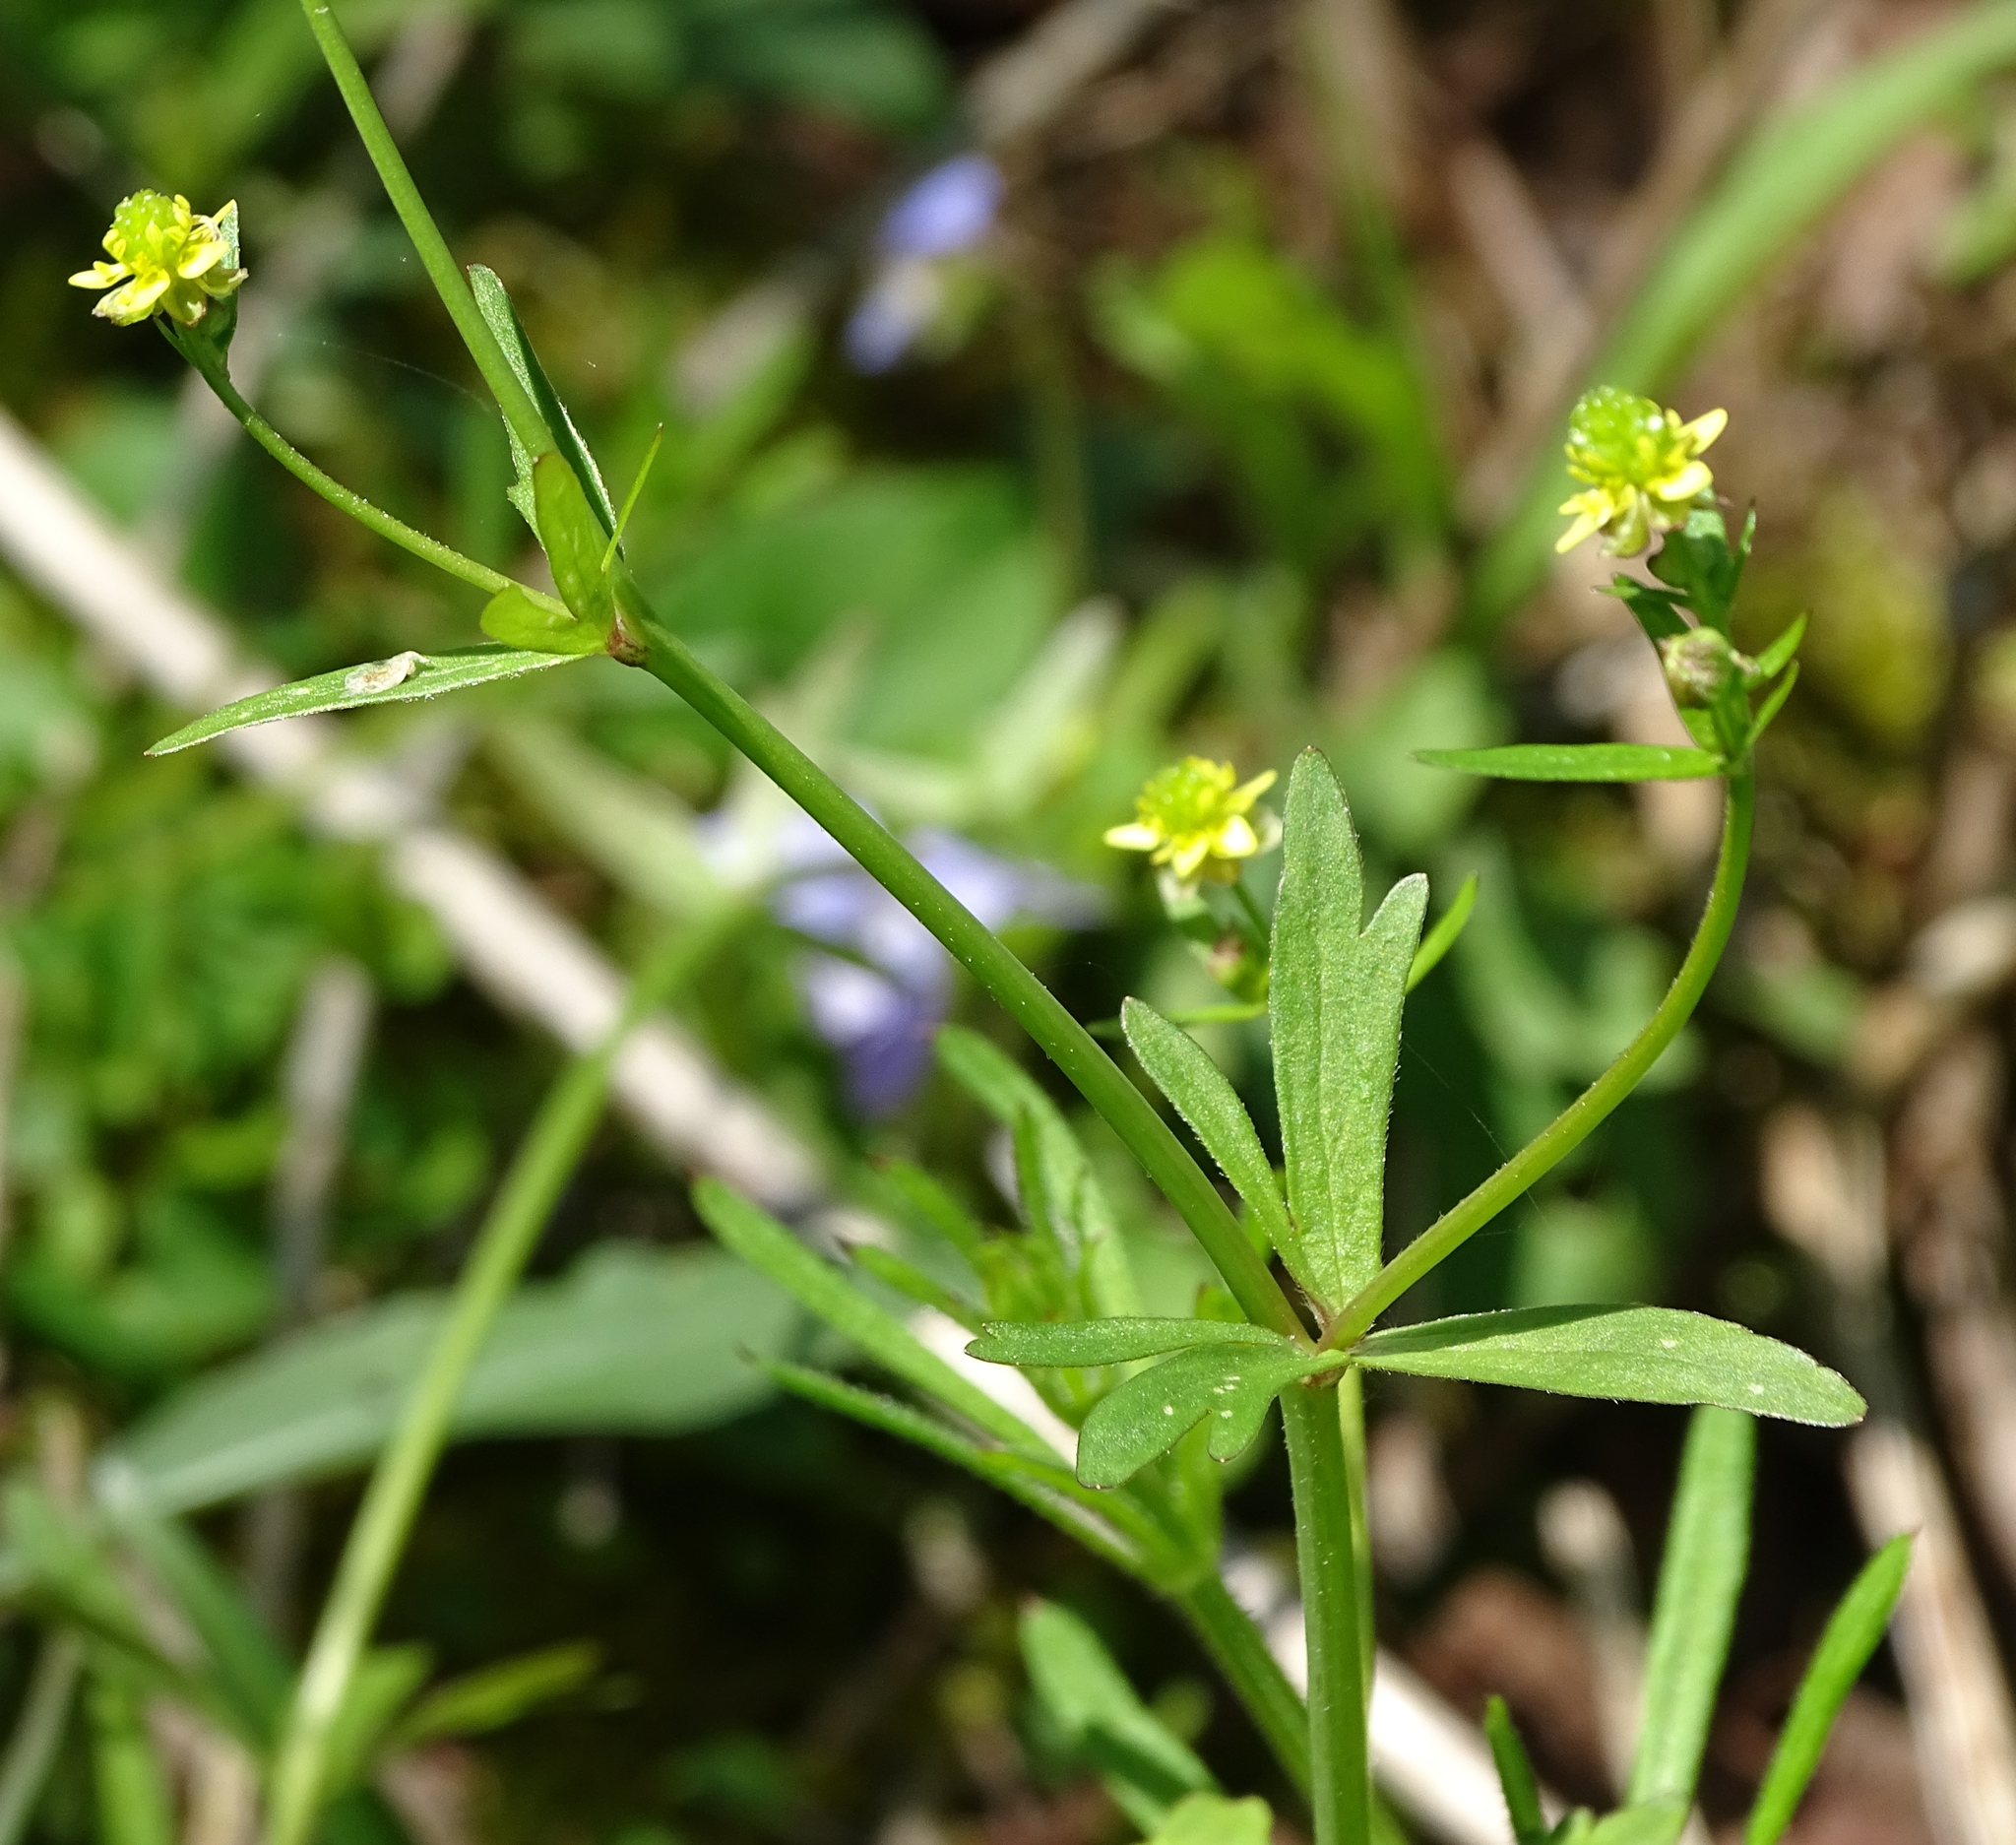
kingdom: Plantae
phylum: Tracheophyta
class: Magnoliopsida
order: Ranunculales
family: Ranunculaceae
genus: Ranunculus
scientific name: Ranunculus abortivus
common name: Early wood buttercup
